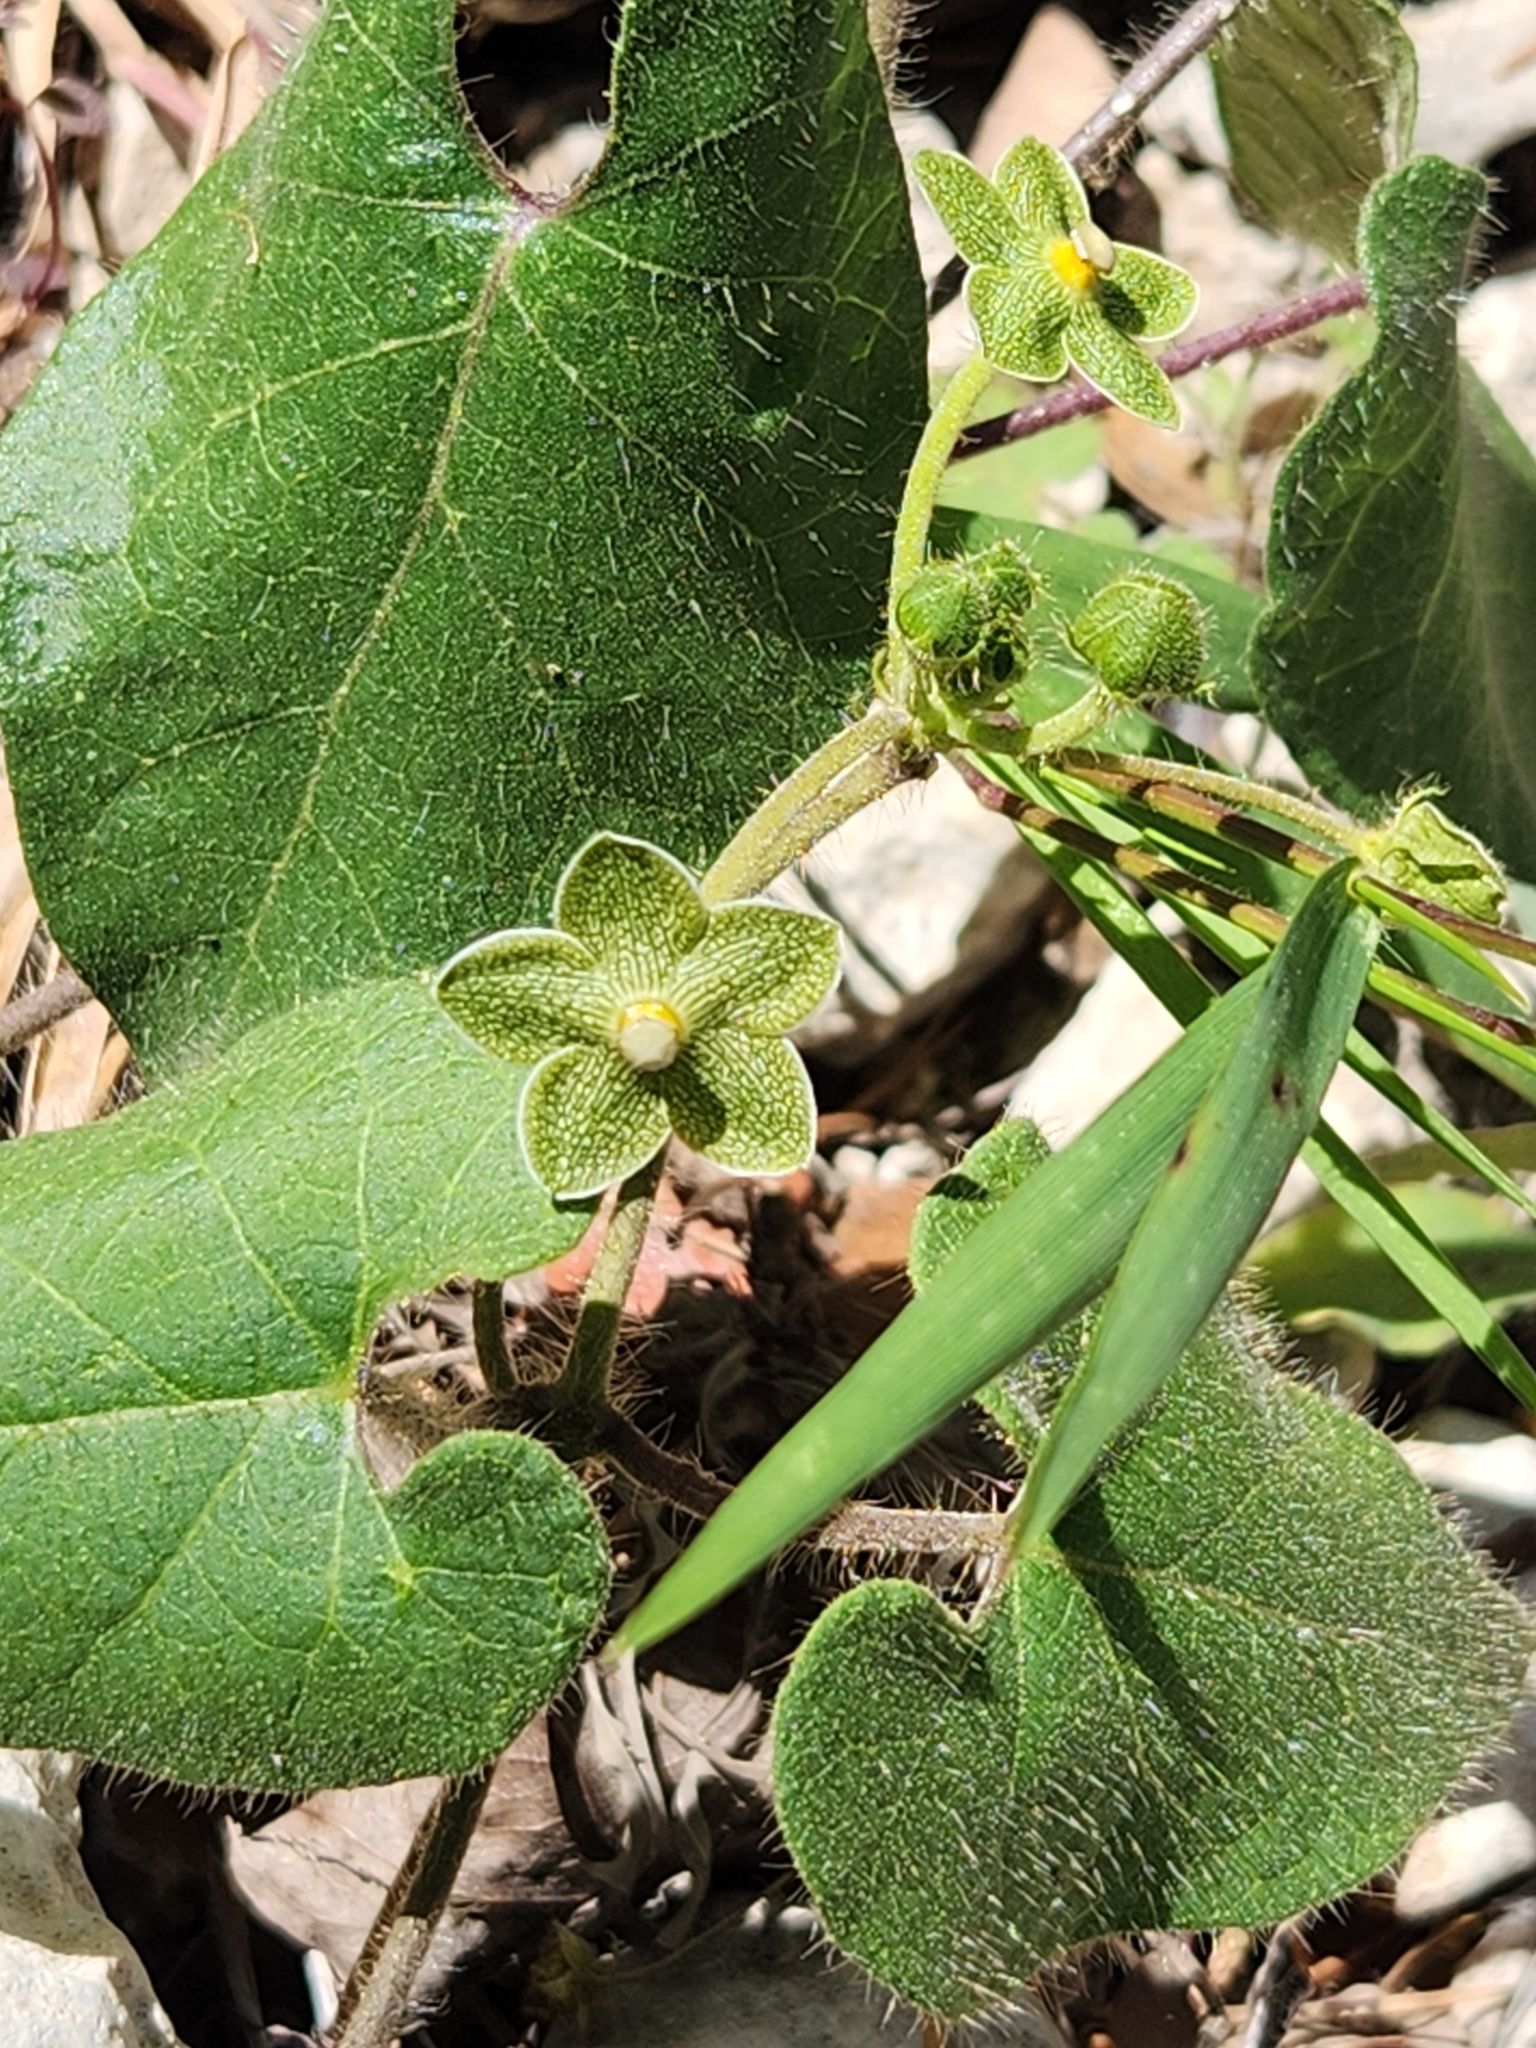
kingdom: Plantae
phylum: Tracheophyta
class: Magnoliopsida
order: Gentianales
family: Apocynaceae
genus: Dictyanthus
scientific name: Dictyanthus reticulatus
